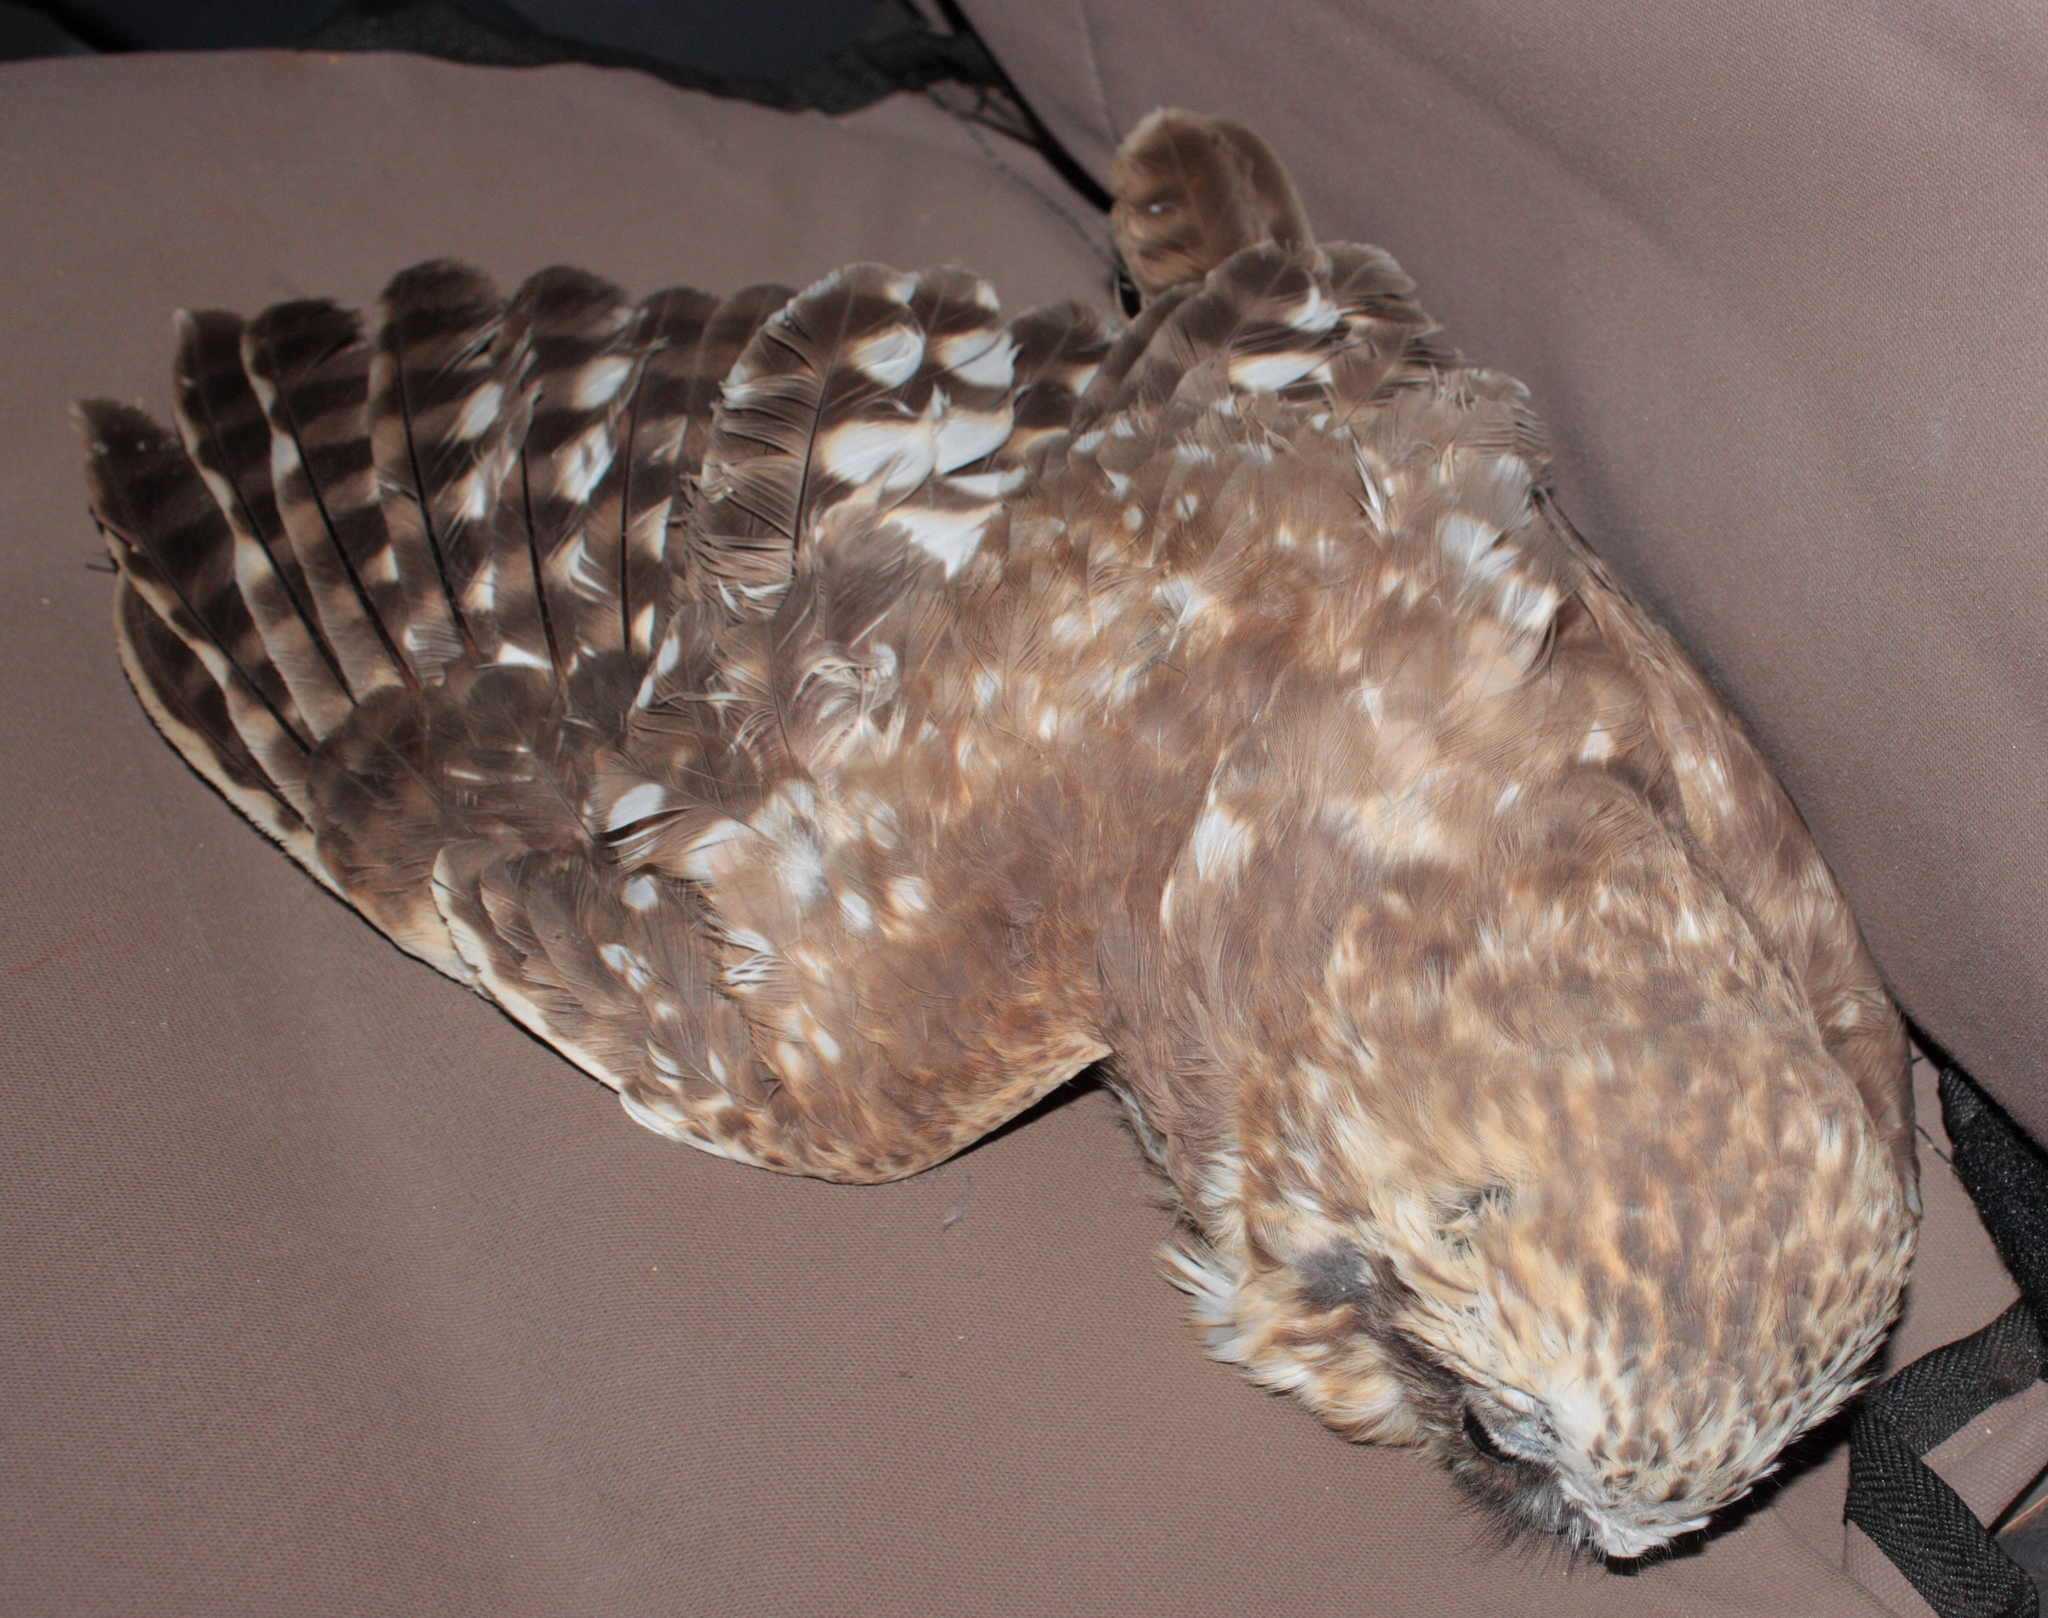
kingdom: Animalia
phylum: Chordata
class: Aves
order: Strigiformes
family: Strigidae
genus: Ninox
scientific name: Ninox boobook
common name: Southern boobook
